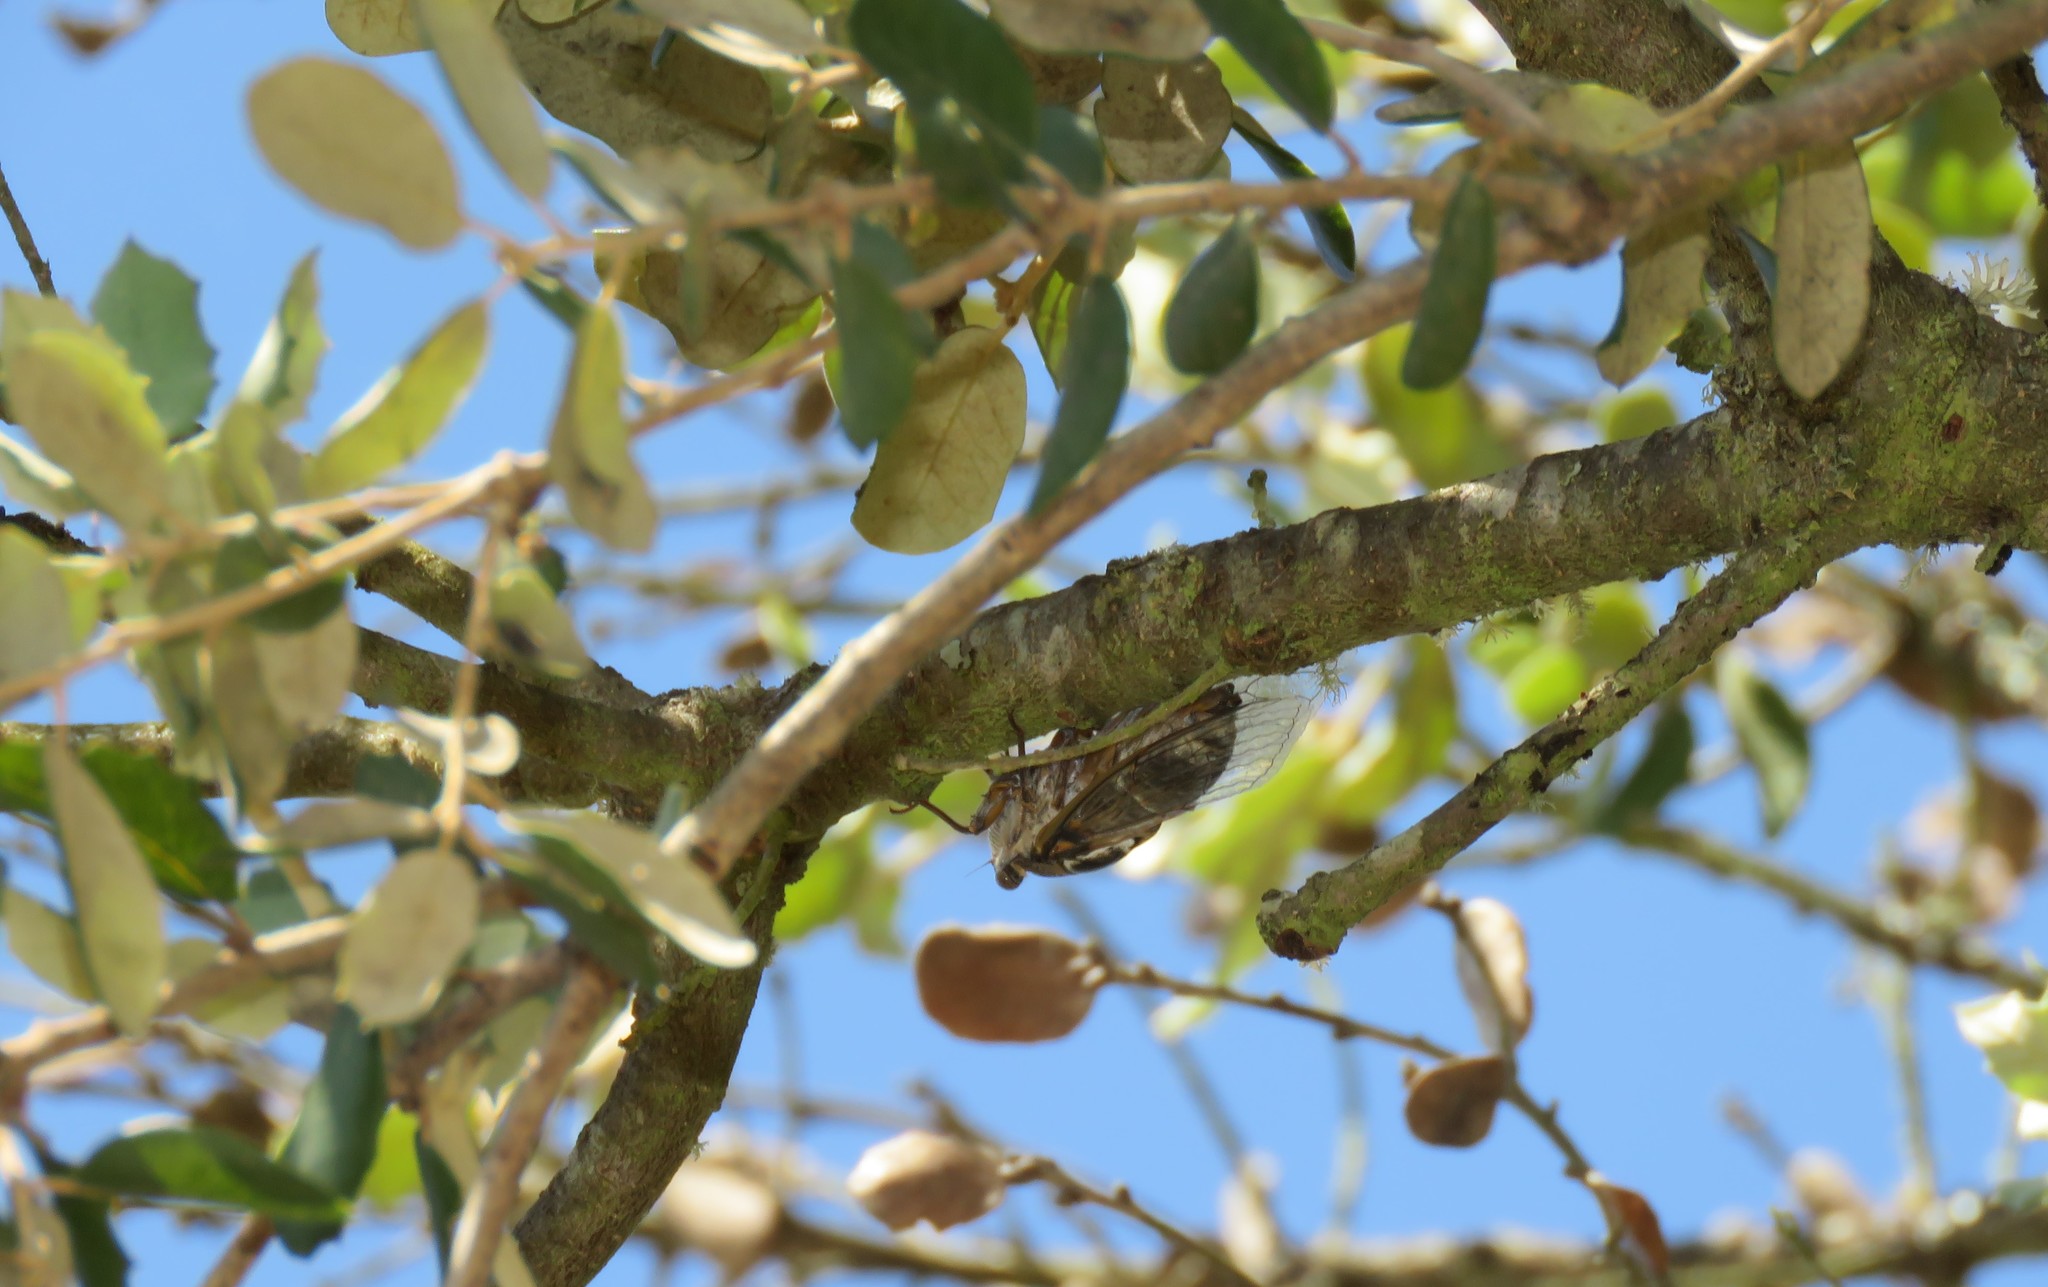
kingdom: Animalia
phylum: Arthropoda
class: Insecta
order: Hemiptera
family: Cicadidae
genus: Lyristes
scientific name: Lyristes plebejus
